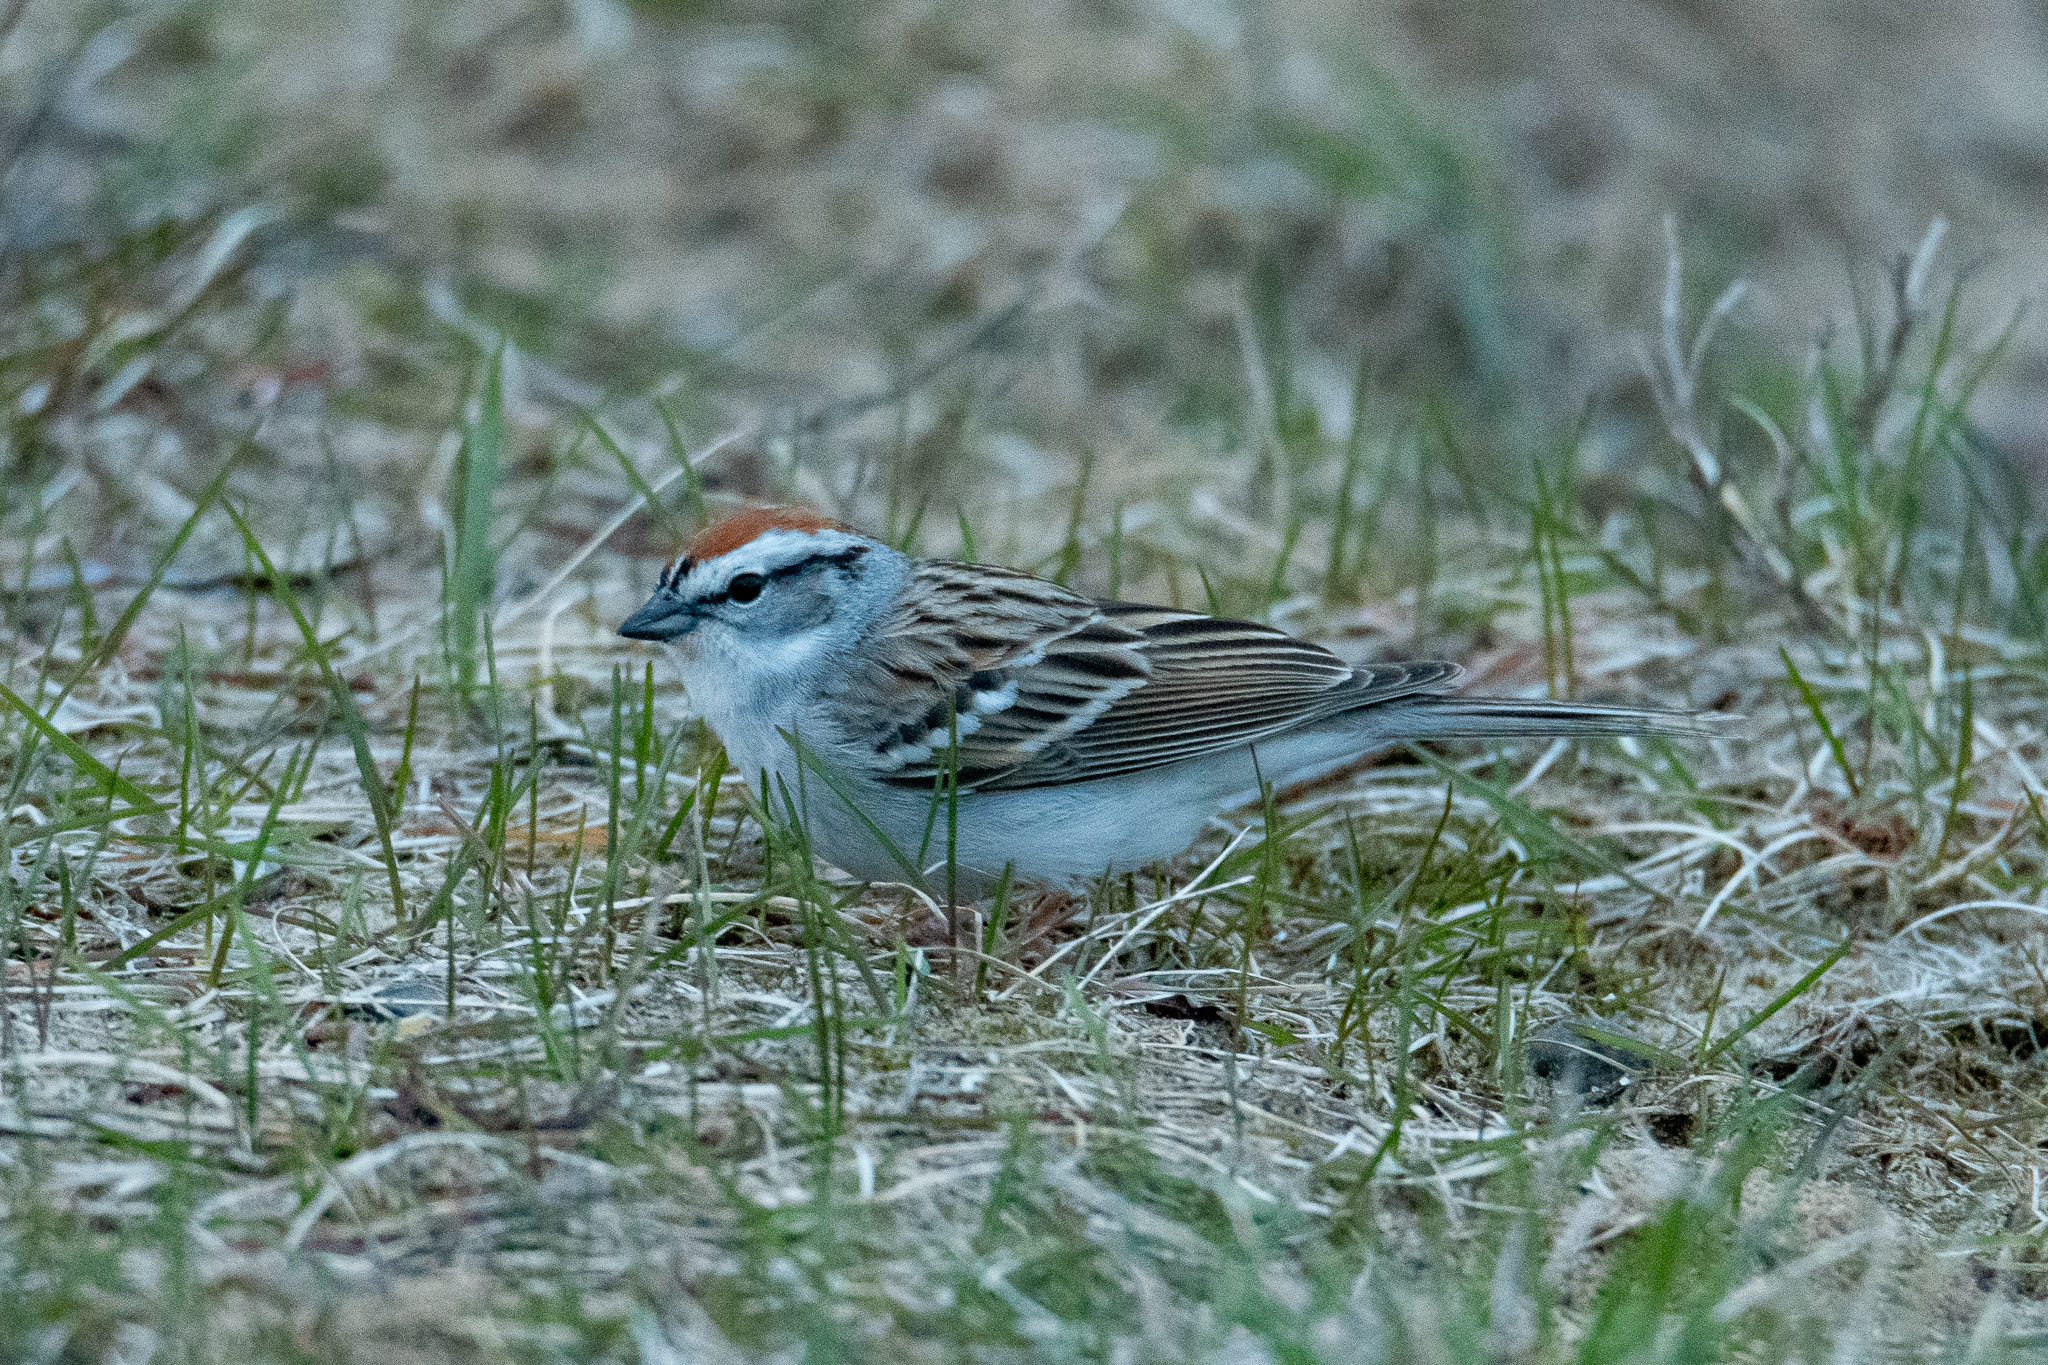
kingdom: Animalia
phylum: Chordata
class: Aves
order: Passeriformes
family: Passerellidae
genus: Spizella
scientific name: Spizella passerina
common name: Chipping sparrow
